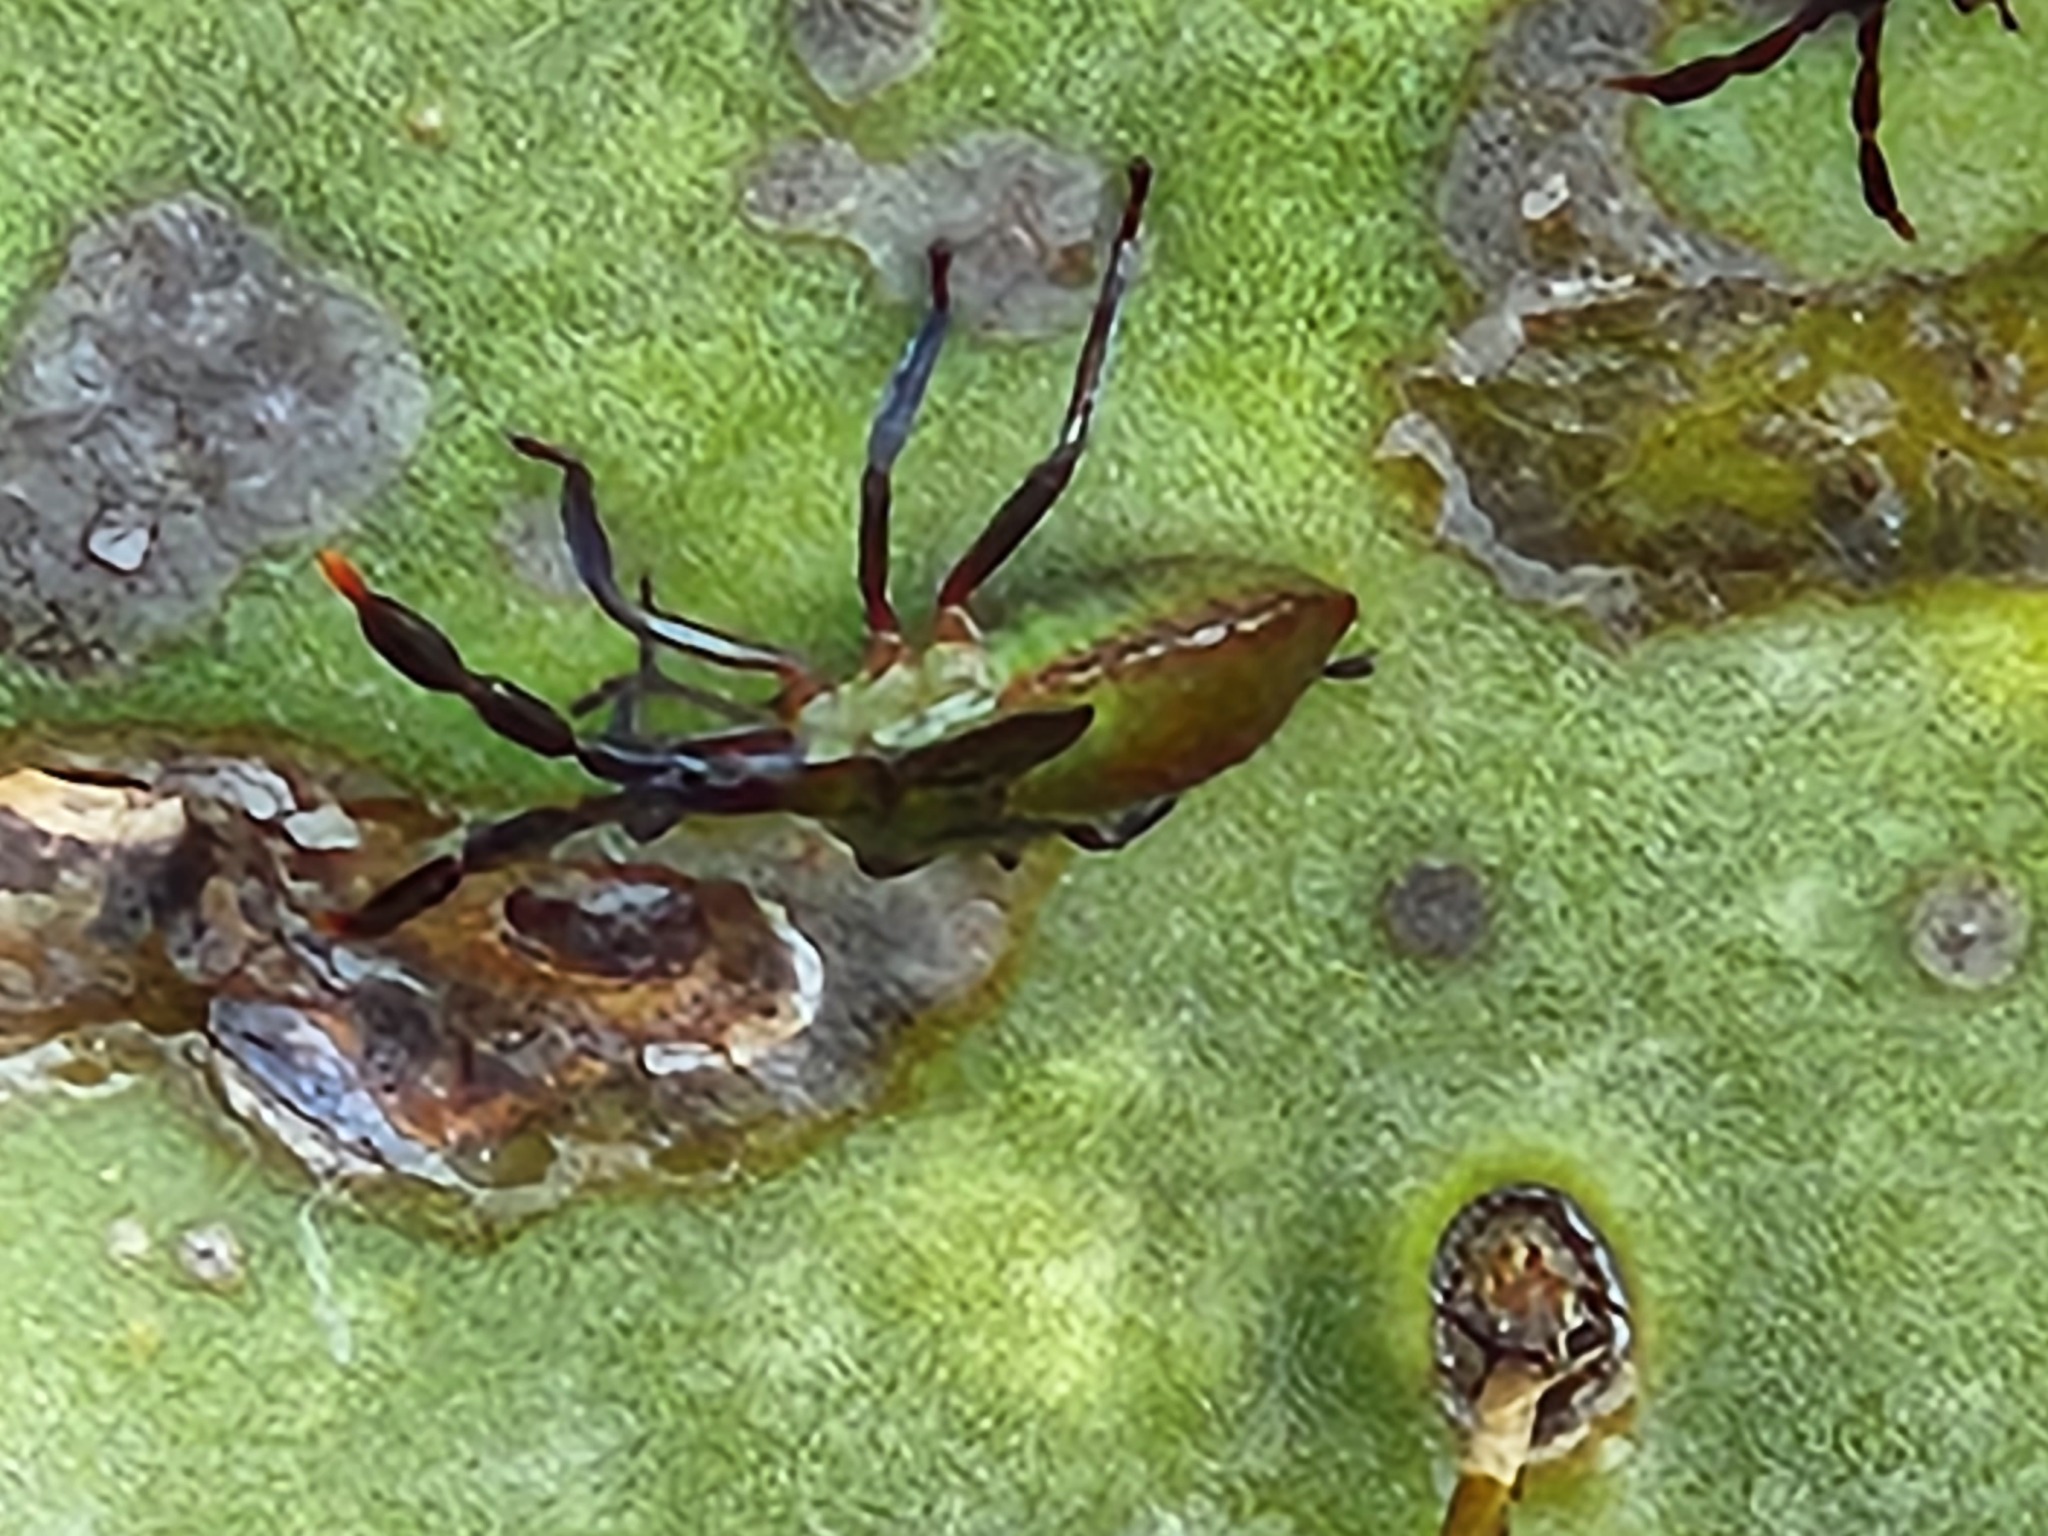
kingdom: Animalia
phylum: Arthropoda
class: Insecta
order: Hemiptera
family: Coreidae
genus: Chelinidea
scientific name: Chelinidea vittiger
